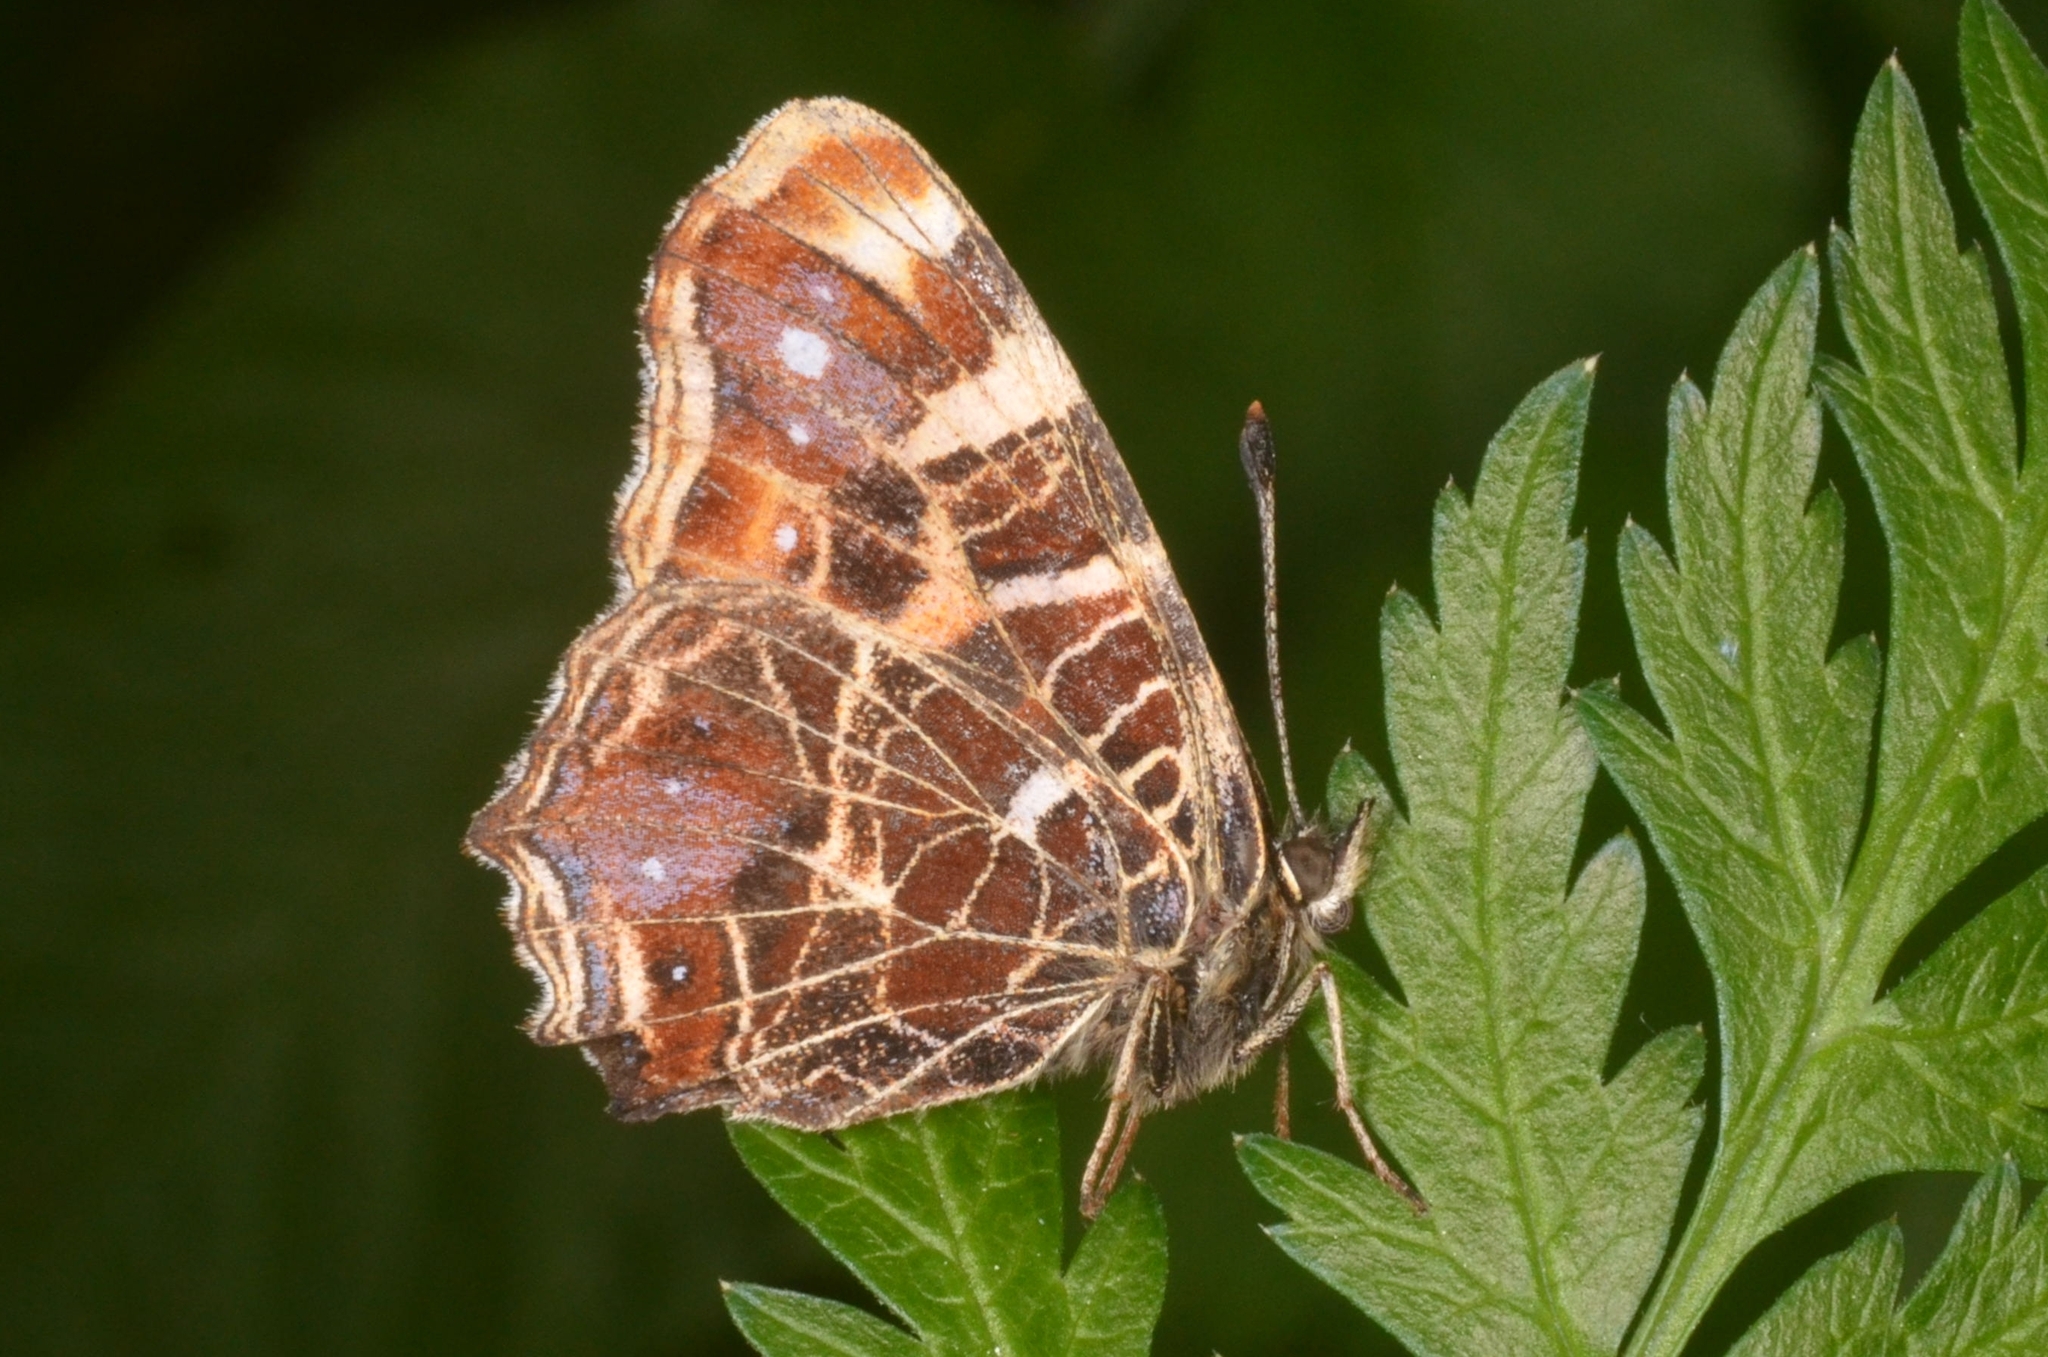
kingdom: Animalia
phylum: Arthropoda
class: Insecta
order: Lepidoptera
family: Nymphalidae
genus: Araschnia
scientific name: Araschnia levana
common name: Map butterfly
